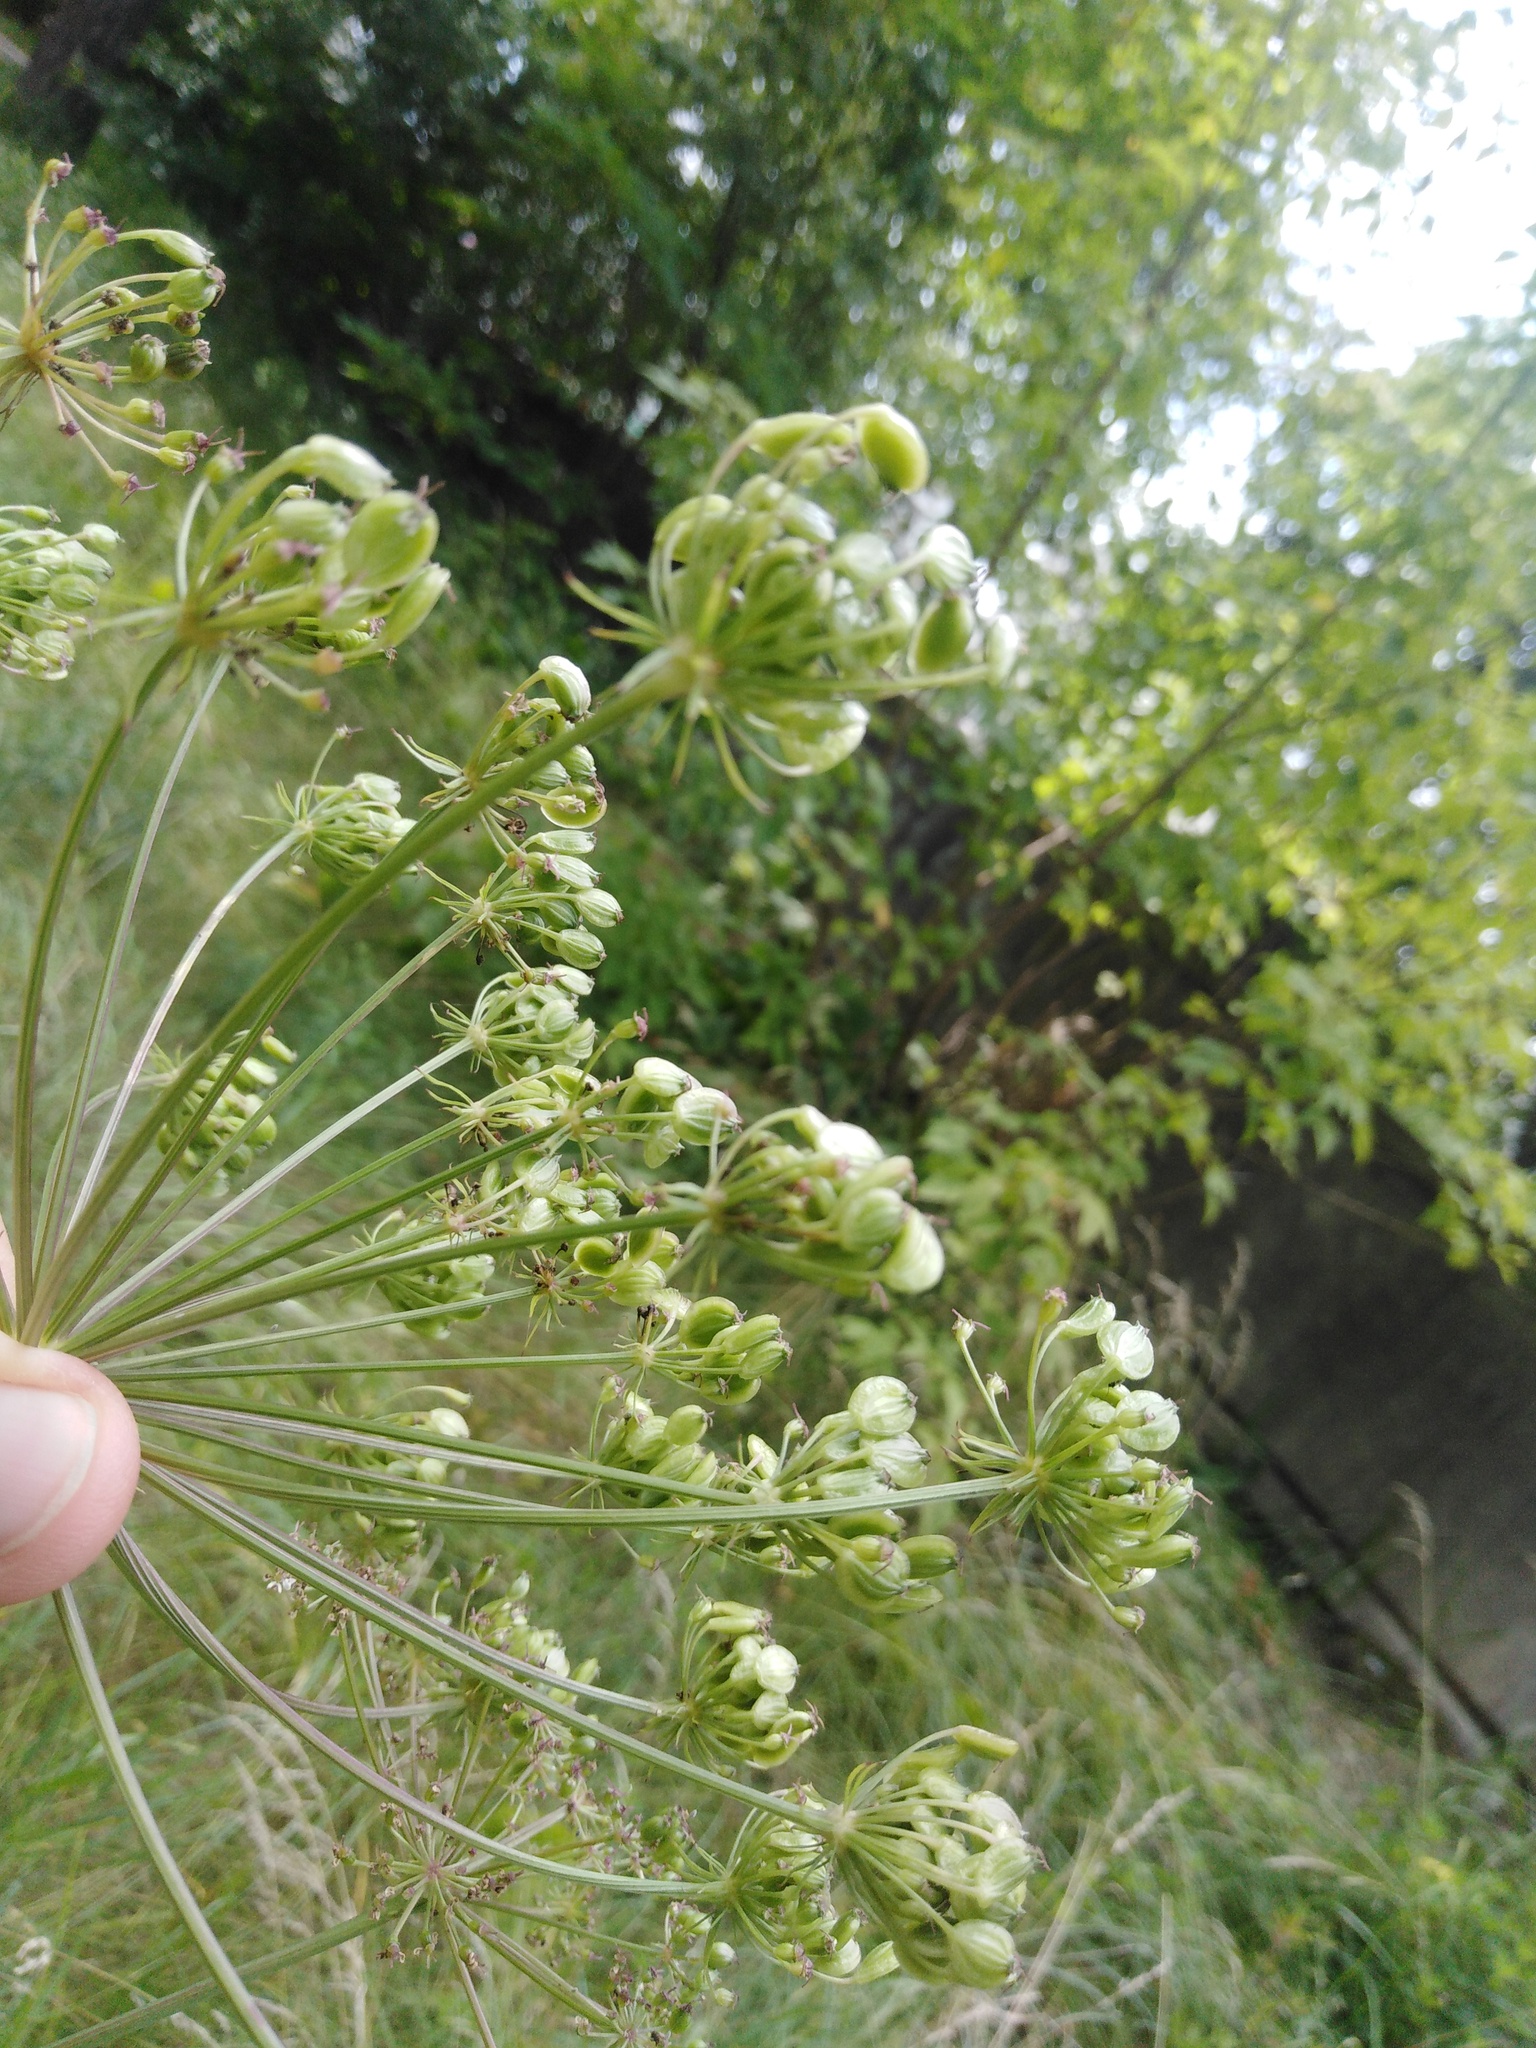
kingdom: Plantae
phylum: Tracheophyta
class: Magnoliopsida
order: Apiales
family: Apiaceae
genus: Oreoselinum
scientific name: Oreoselinum nigrum
